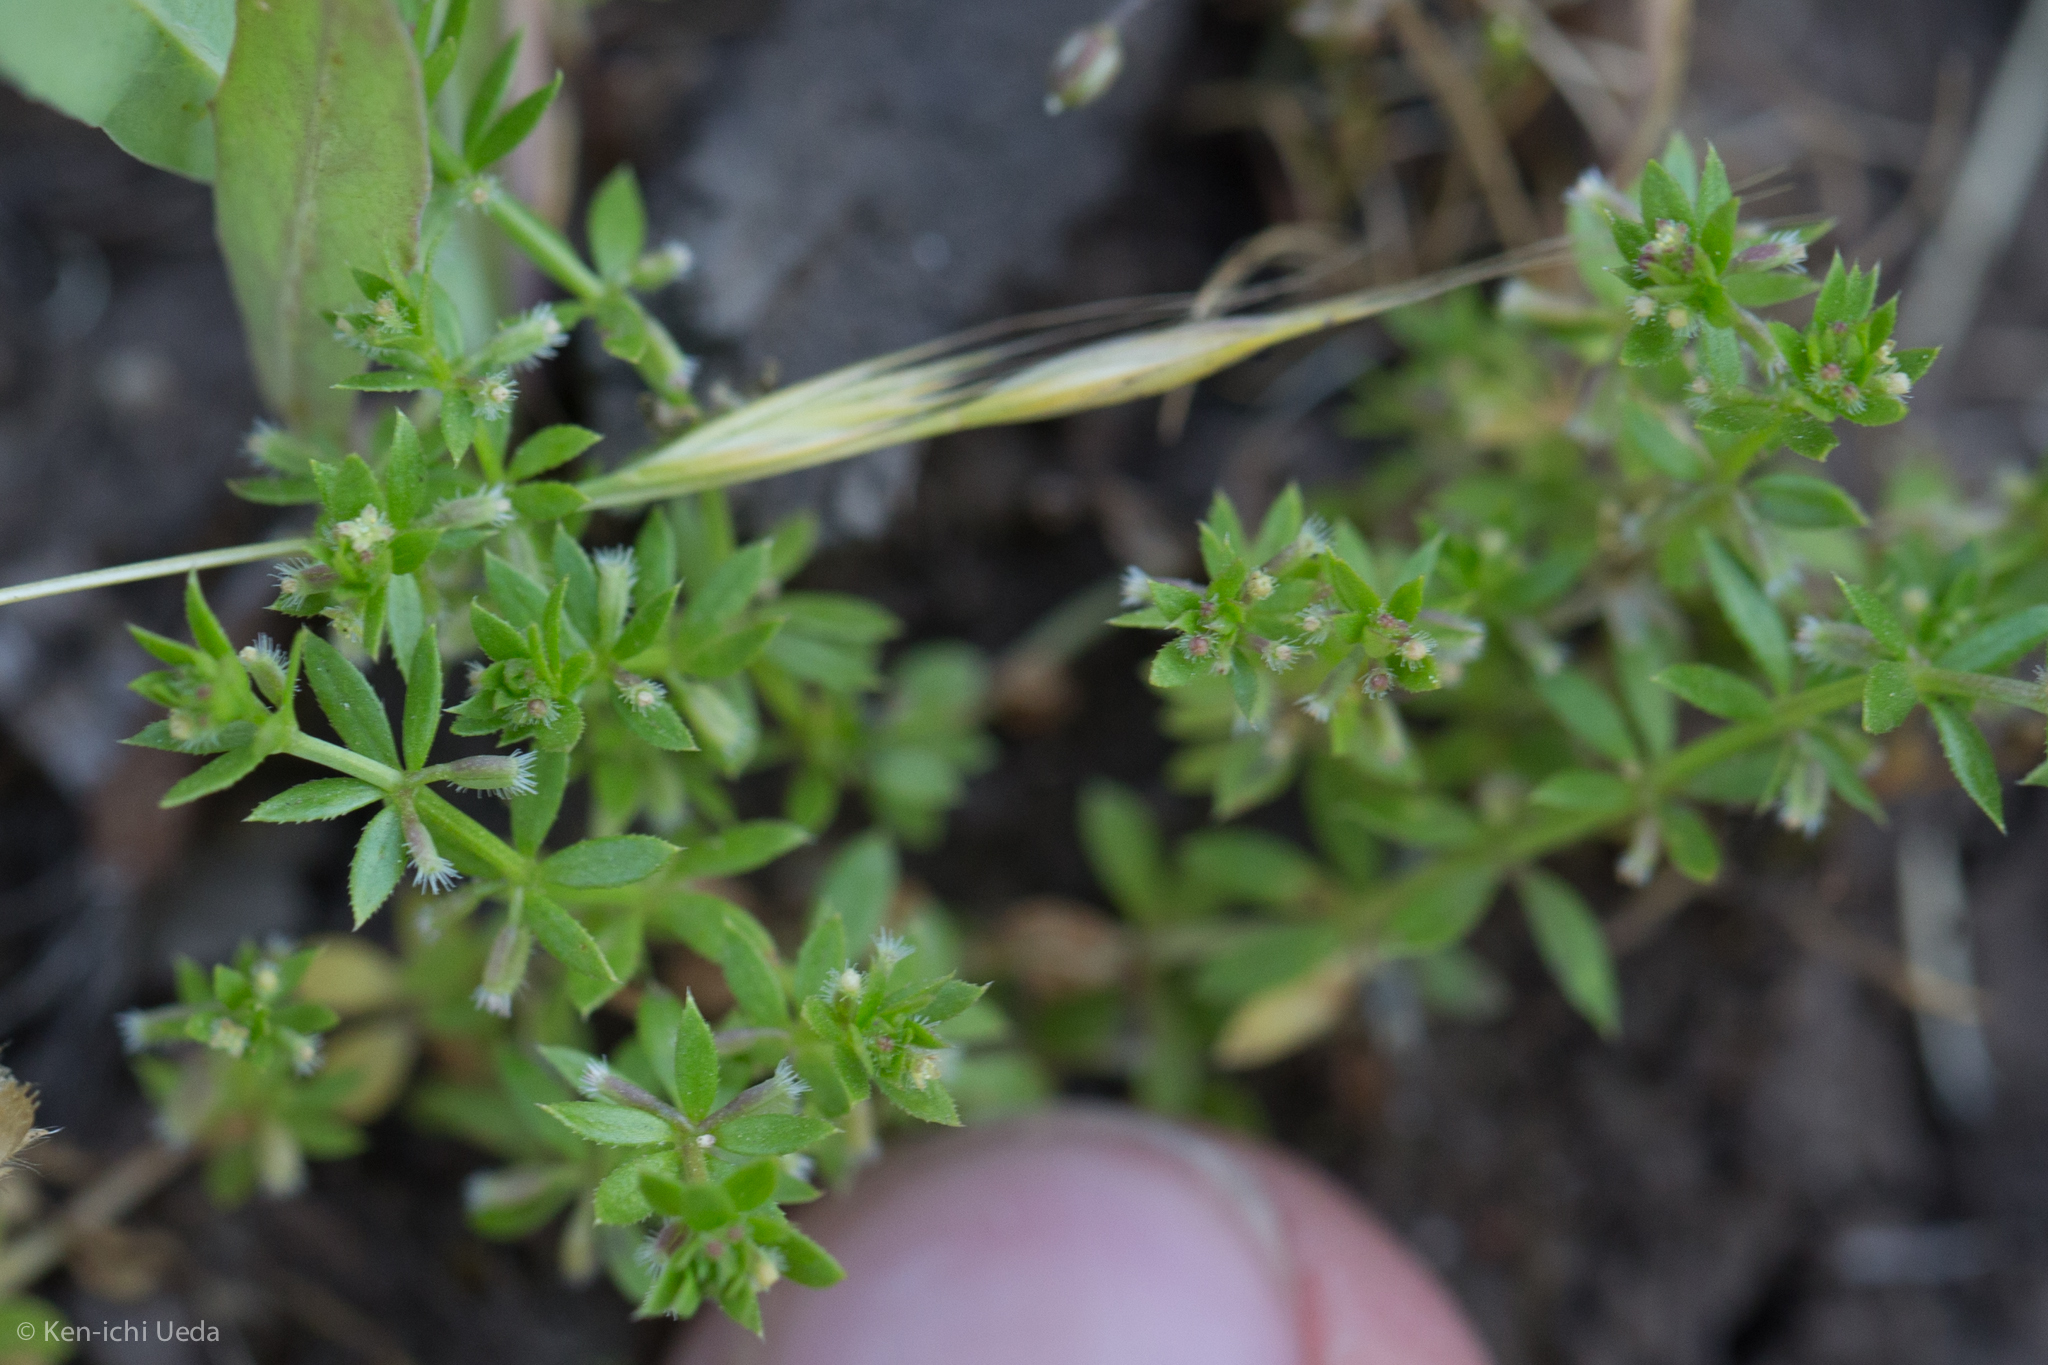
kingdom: Plantae
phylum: Tracheophyta
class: Magnoliopsida
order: Gentianales
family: Rubiaceae
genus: Galium
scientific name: Galium murale
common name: Yellow wall bedstraw
